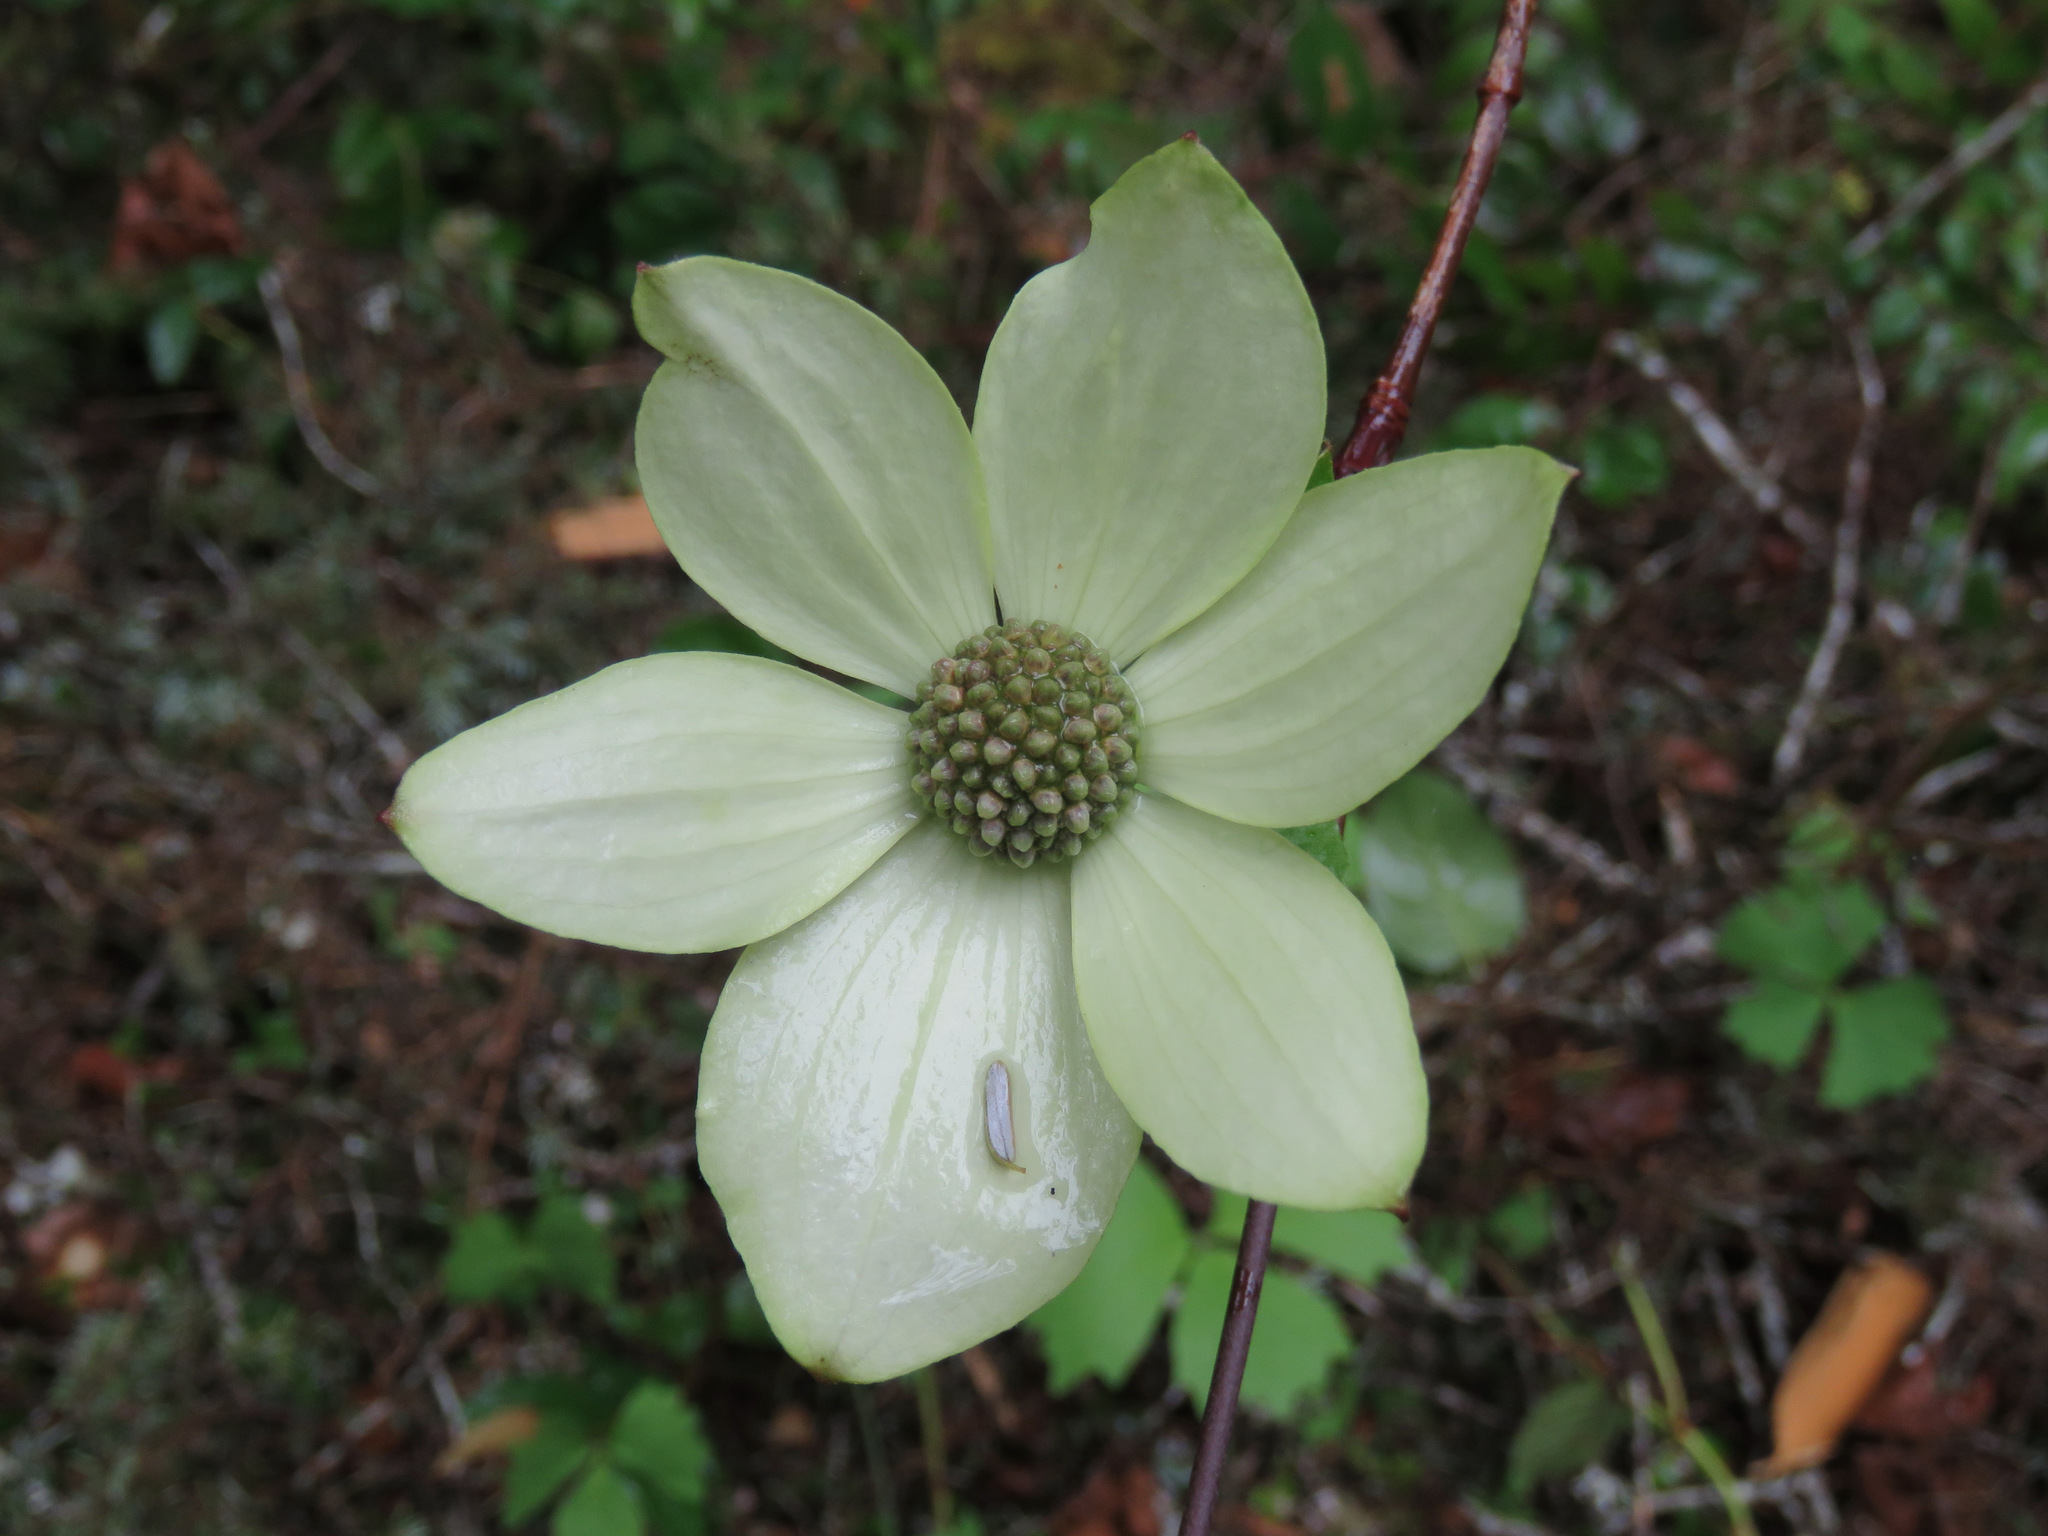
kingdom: Plantae
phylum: Tracheophyta
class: Magnoliopsida
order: Cornales
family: Cornaceae
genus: Cornus
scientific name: Cornus nuttallii
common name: Pacific dogwood
